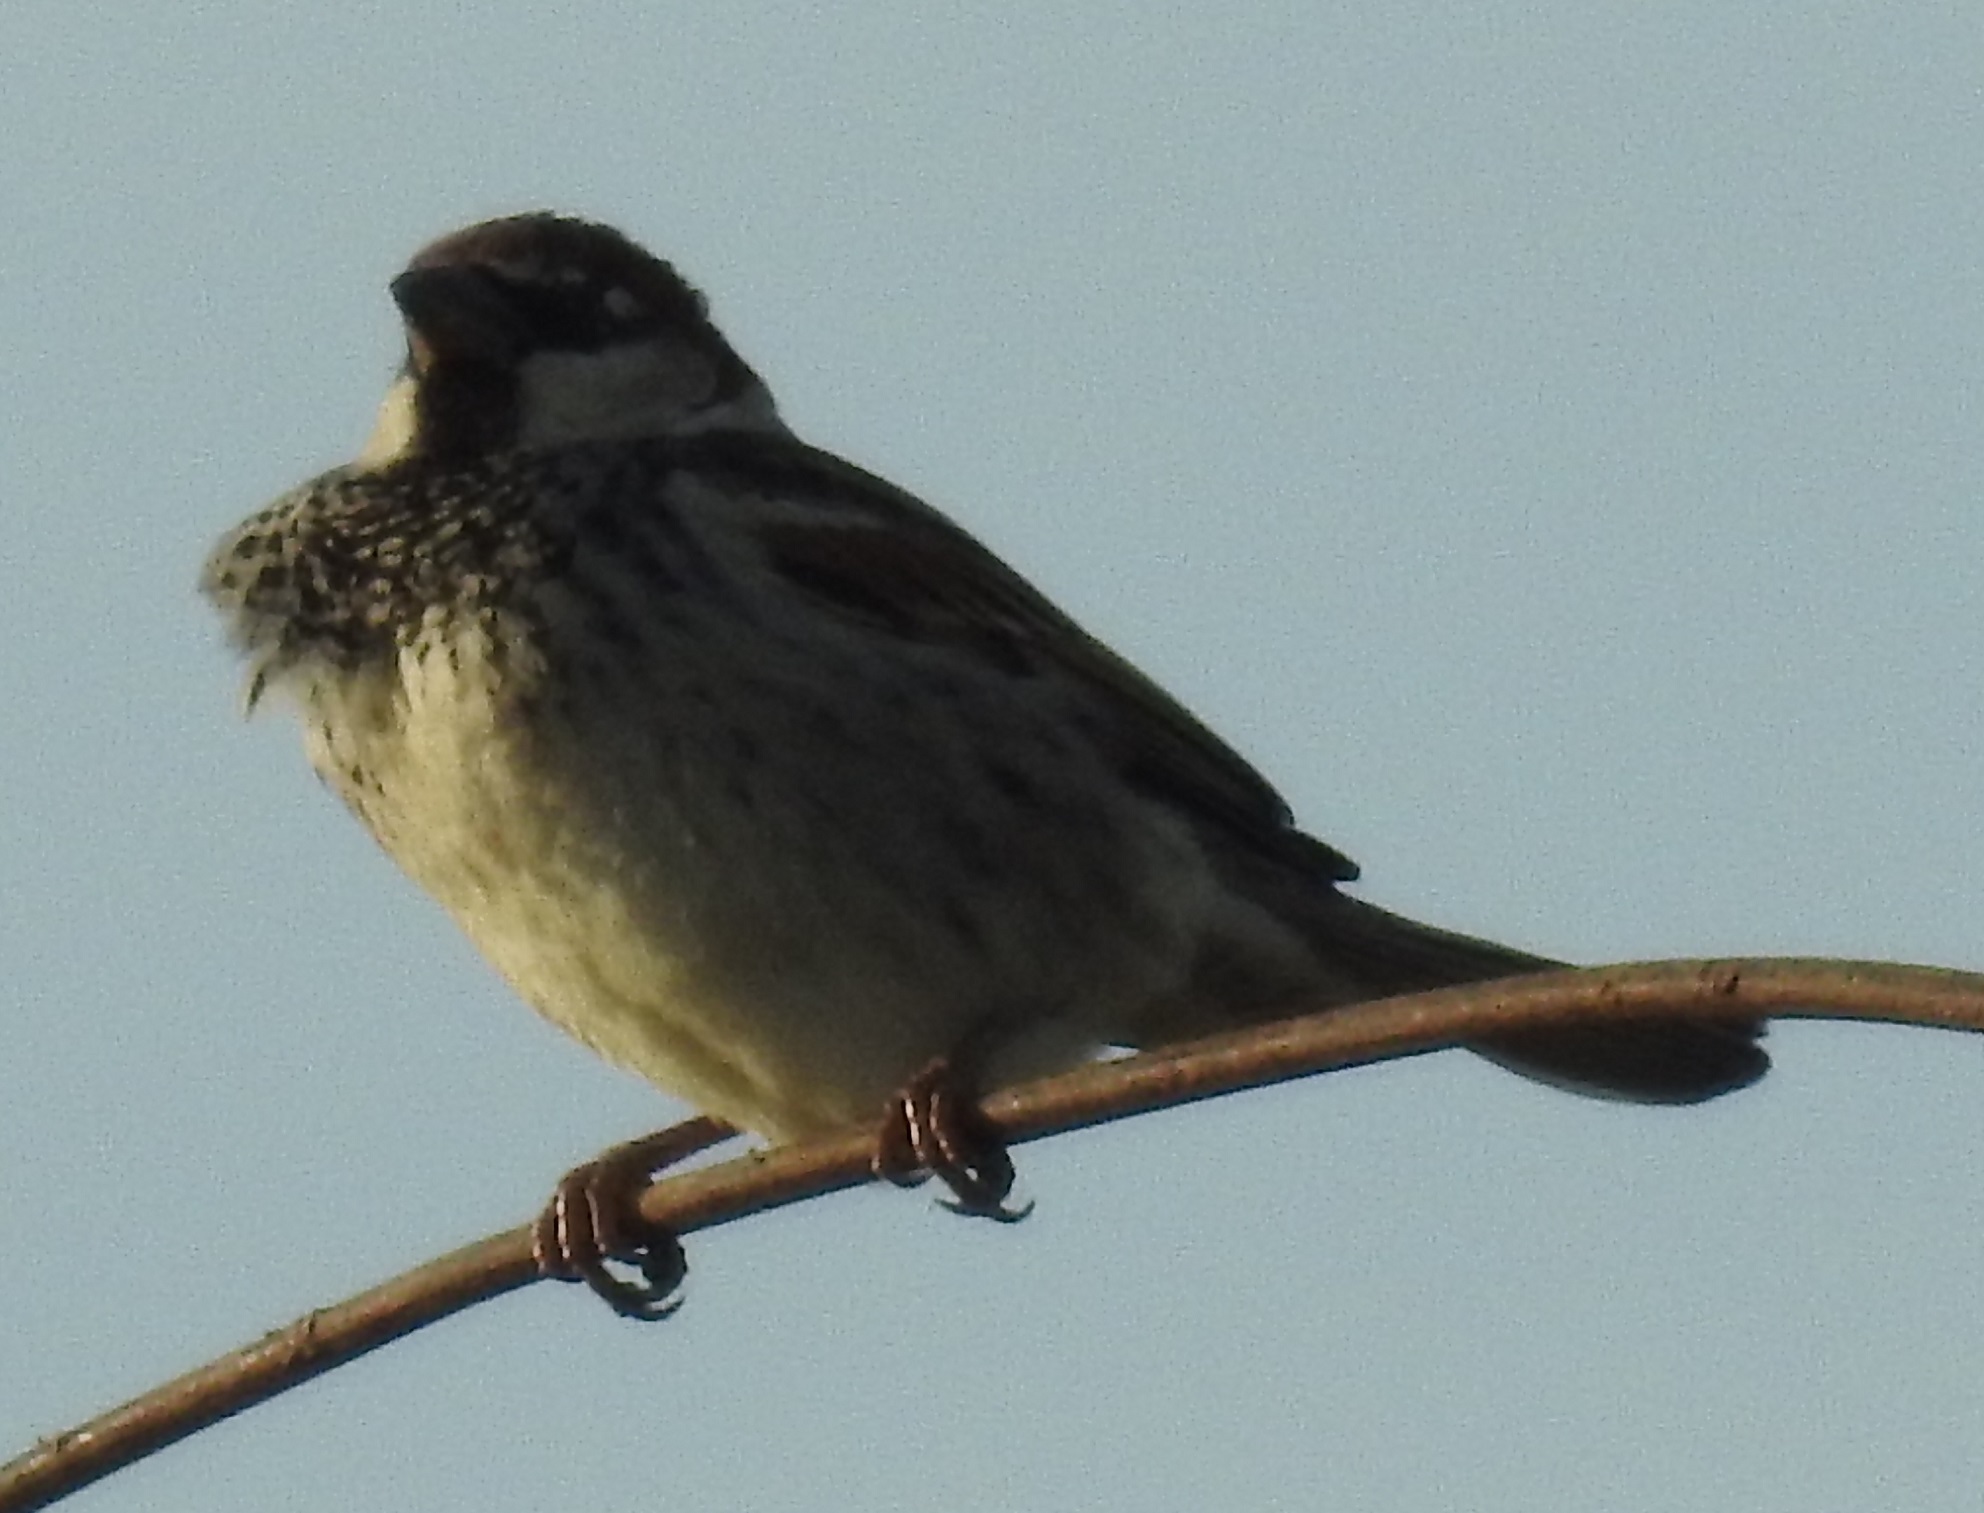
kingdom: Animalia
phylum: Chordata
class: Aves
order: Passeriformes
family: Passeridae
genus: Passer
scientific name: Passer domesticus
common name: House sparrow
